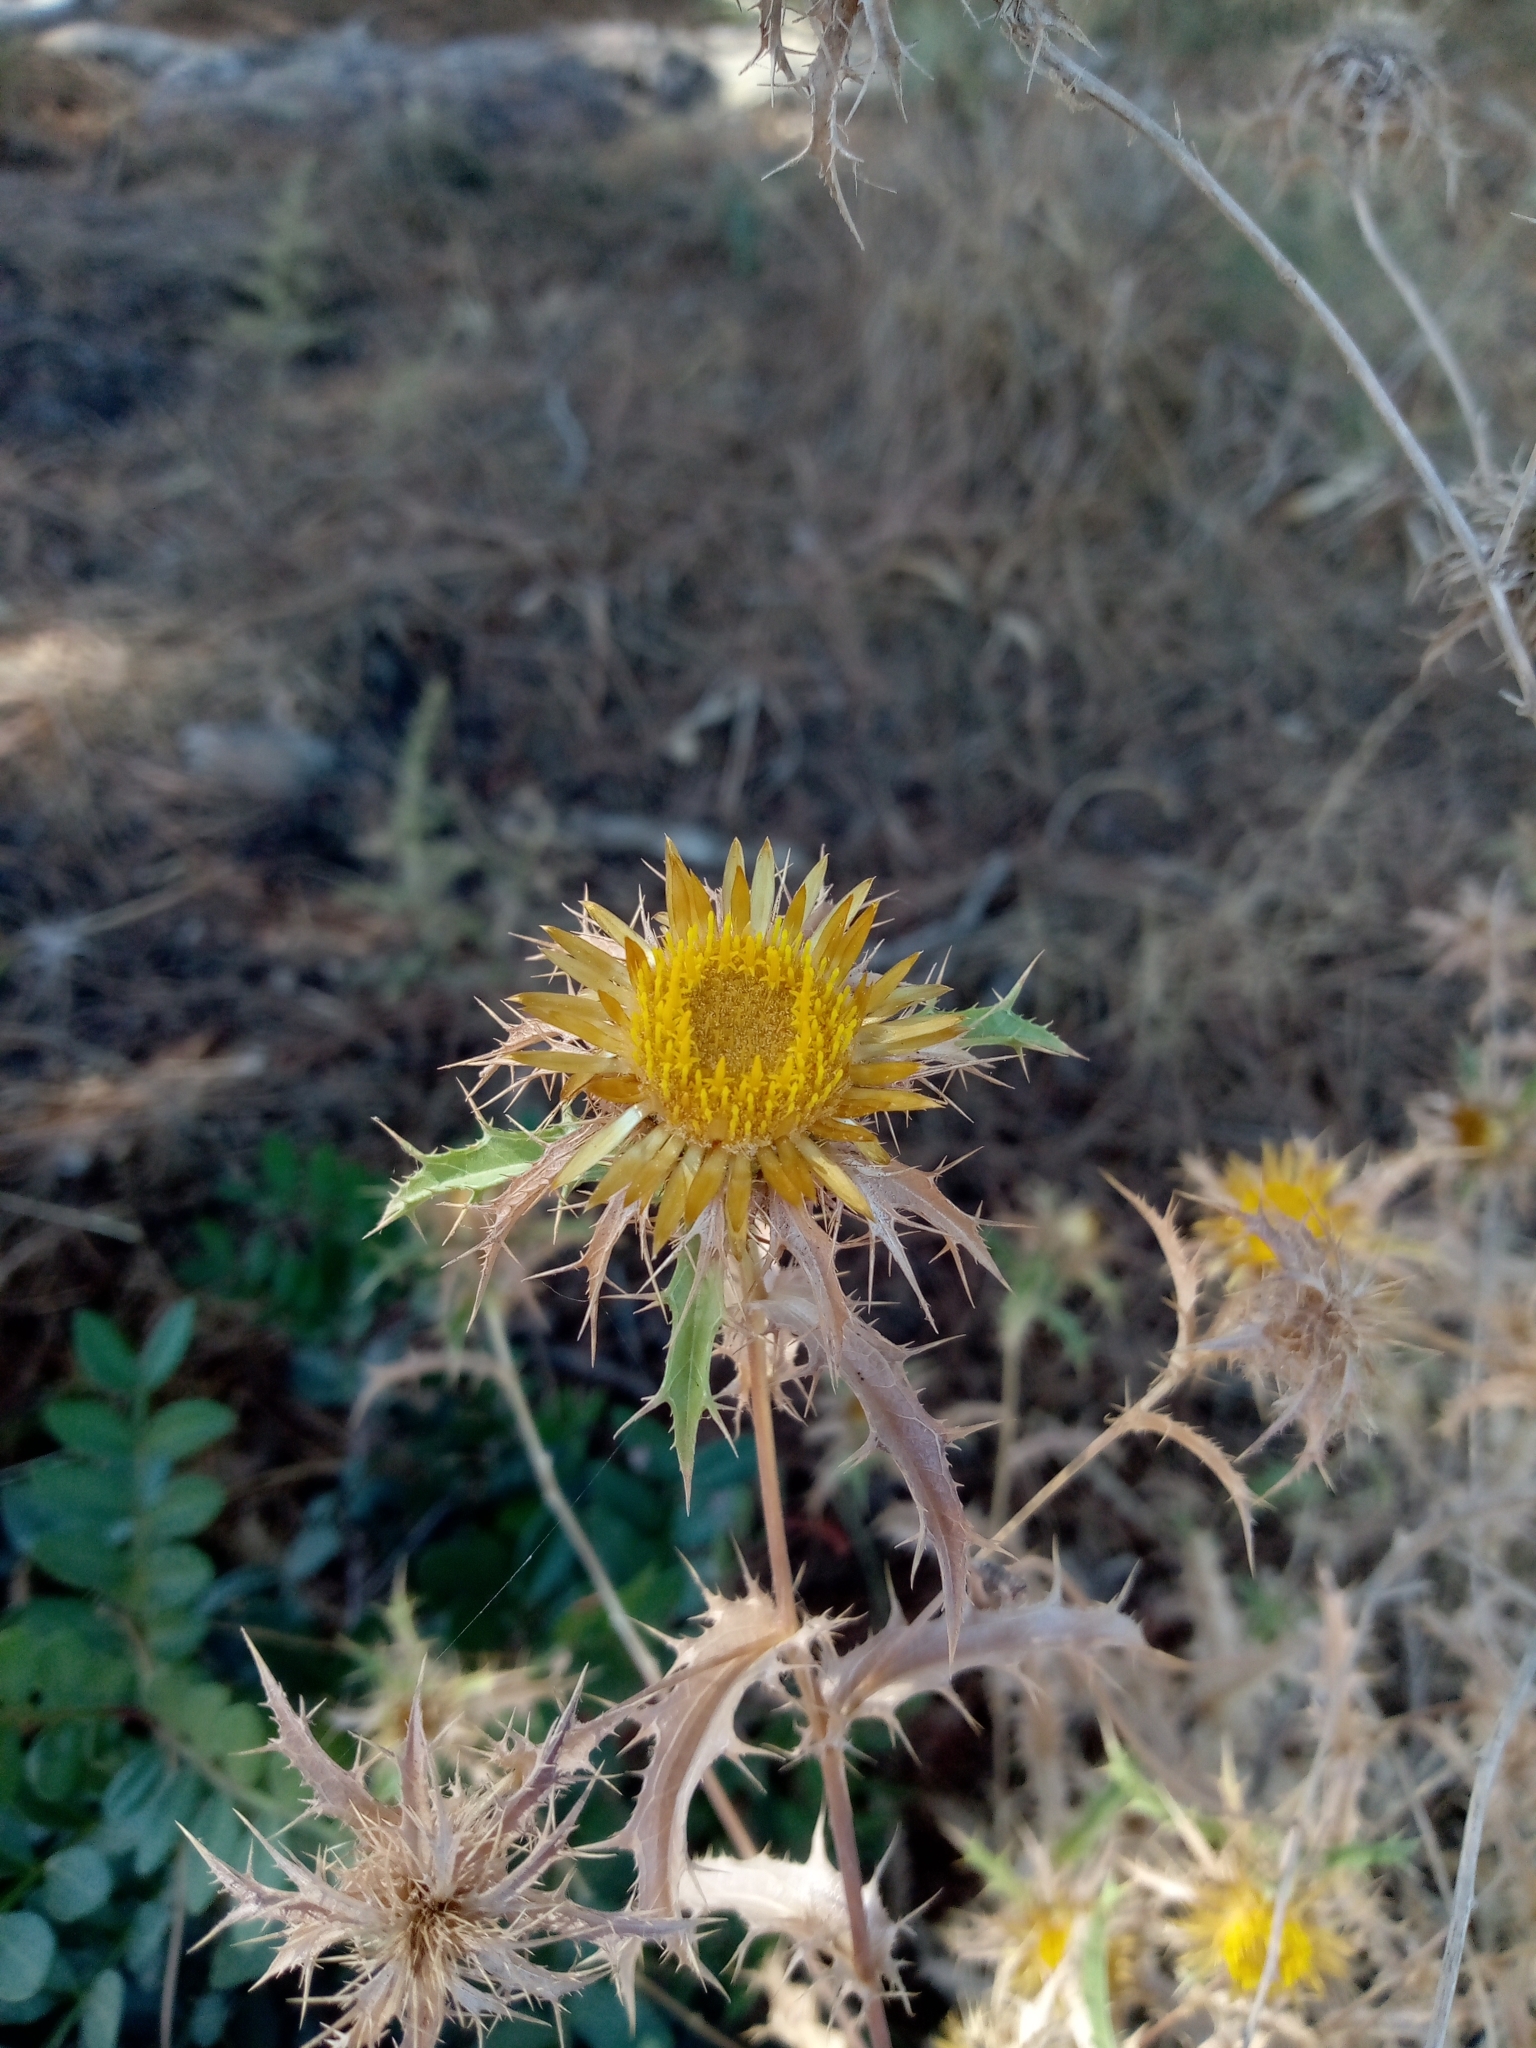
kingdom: Plantae
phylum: Tracheophyta
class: Magnoliopsida
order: Asterales
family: Asteraceae
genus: Carlina
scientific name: Carlina hispanica
